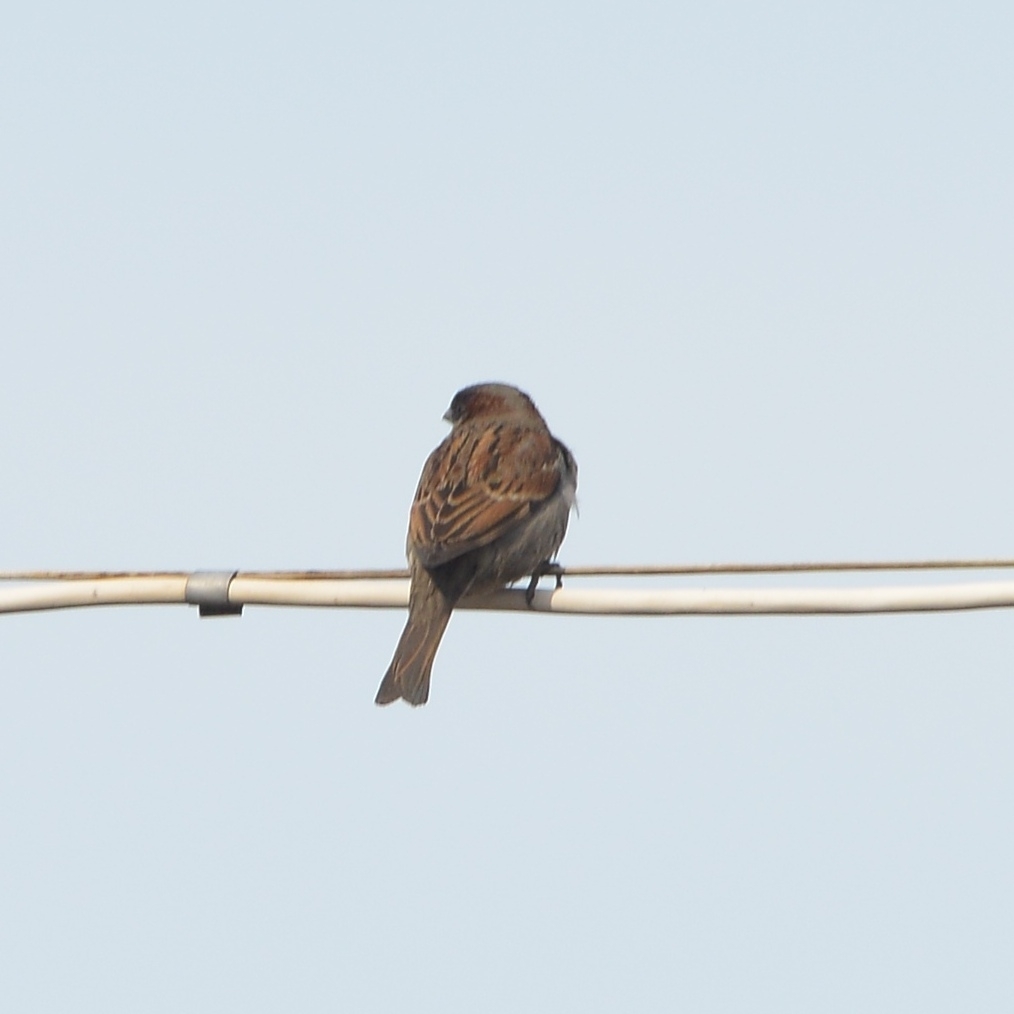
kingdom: Animalia
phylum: Chordata
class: Aves
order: Passeriformes
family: Passeridae
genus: Passer
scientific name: Passer domesticus
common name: House sparrow
